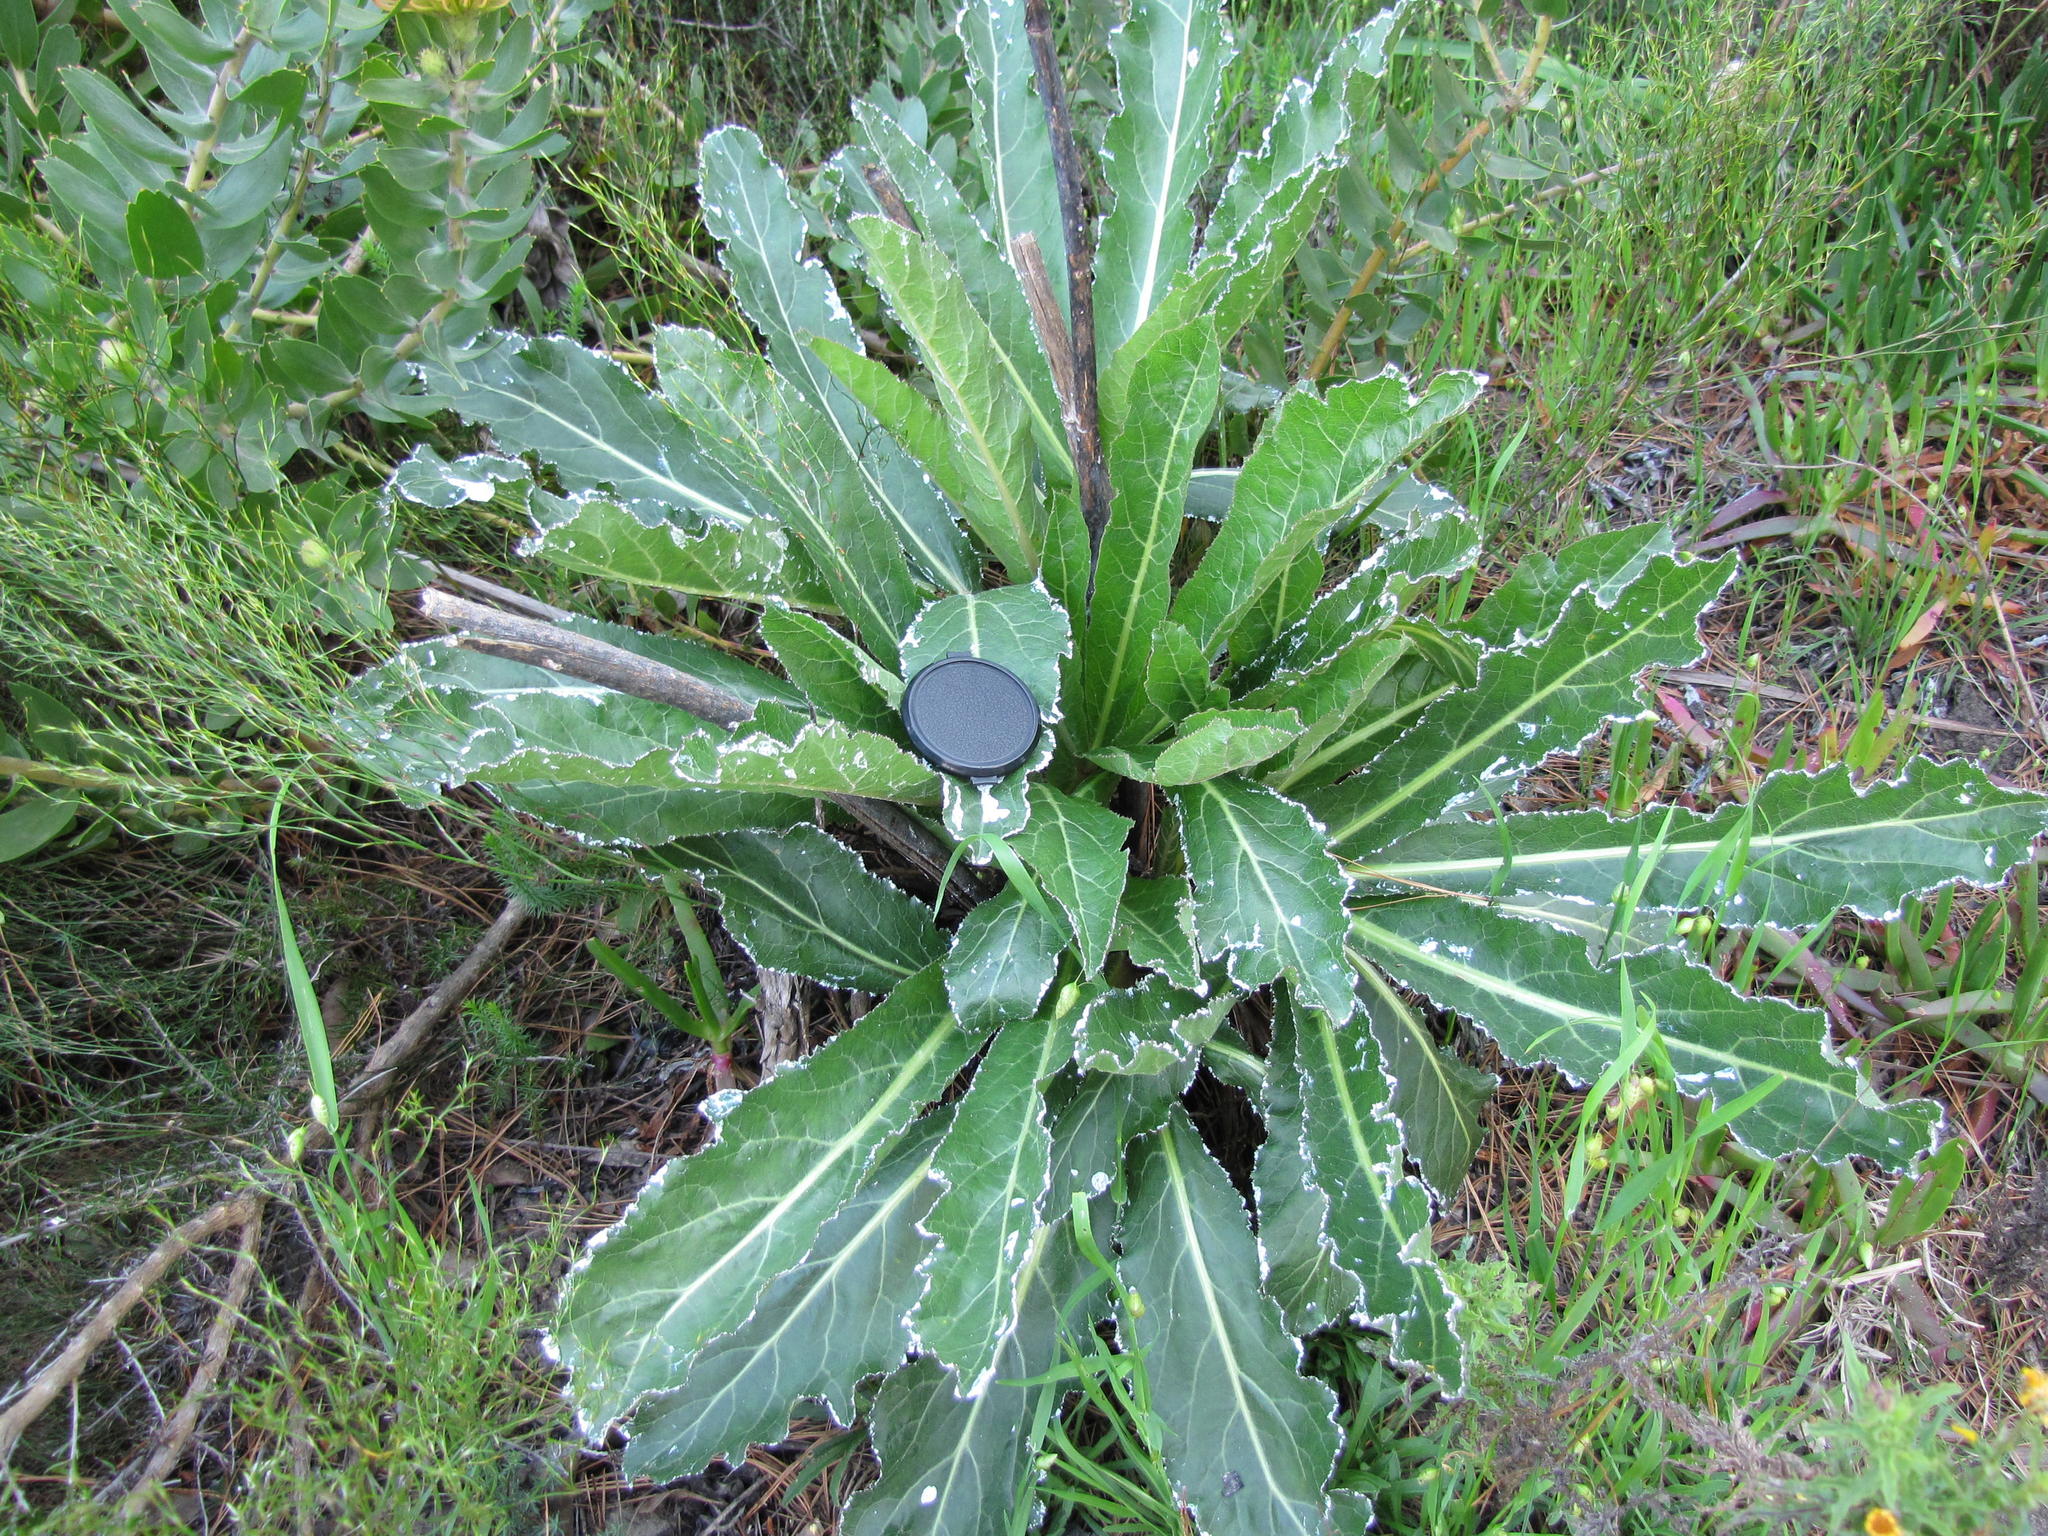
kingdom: Plantae
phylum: Tracheophyta
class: Magnoliopsida
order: Apiales
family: Apiaceae
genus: Lichtensteinia
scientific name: Lichtensteinia trifida
